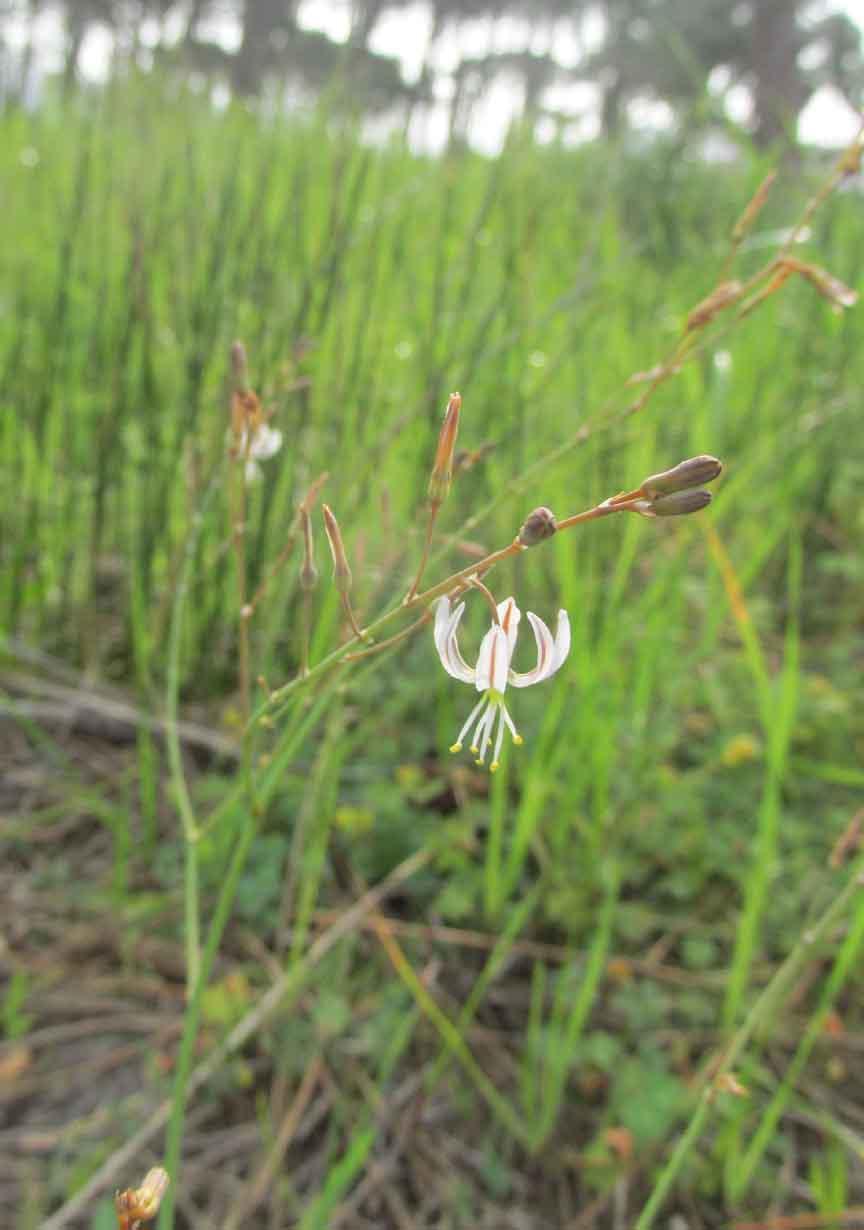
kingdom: Plantae
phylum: Tracheophyta
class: Liliopsida
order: Asparagales
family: Asphodelaceae
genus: Trachyandra
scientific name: Trachyandra revoluta
